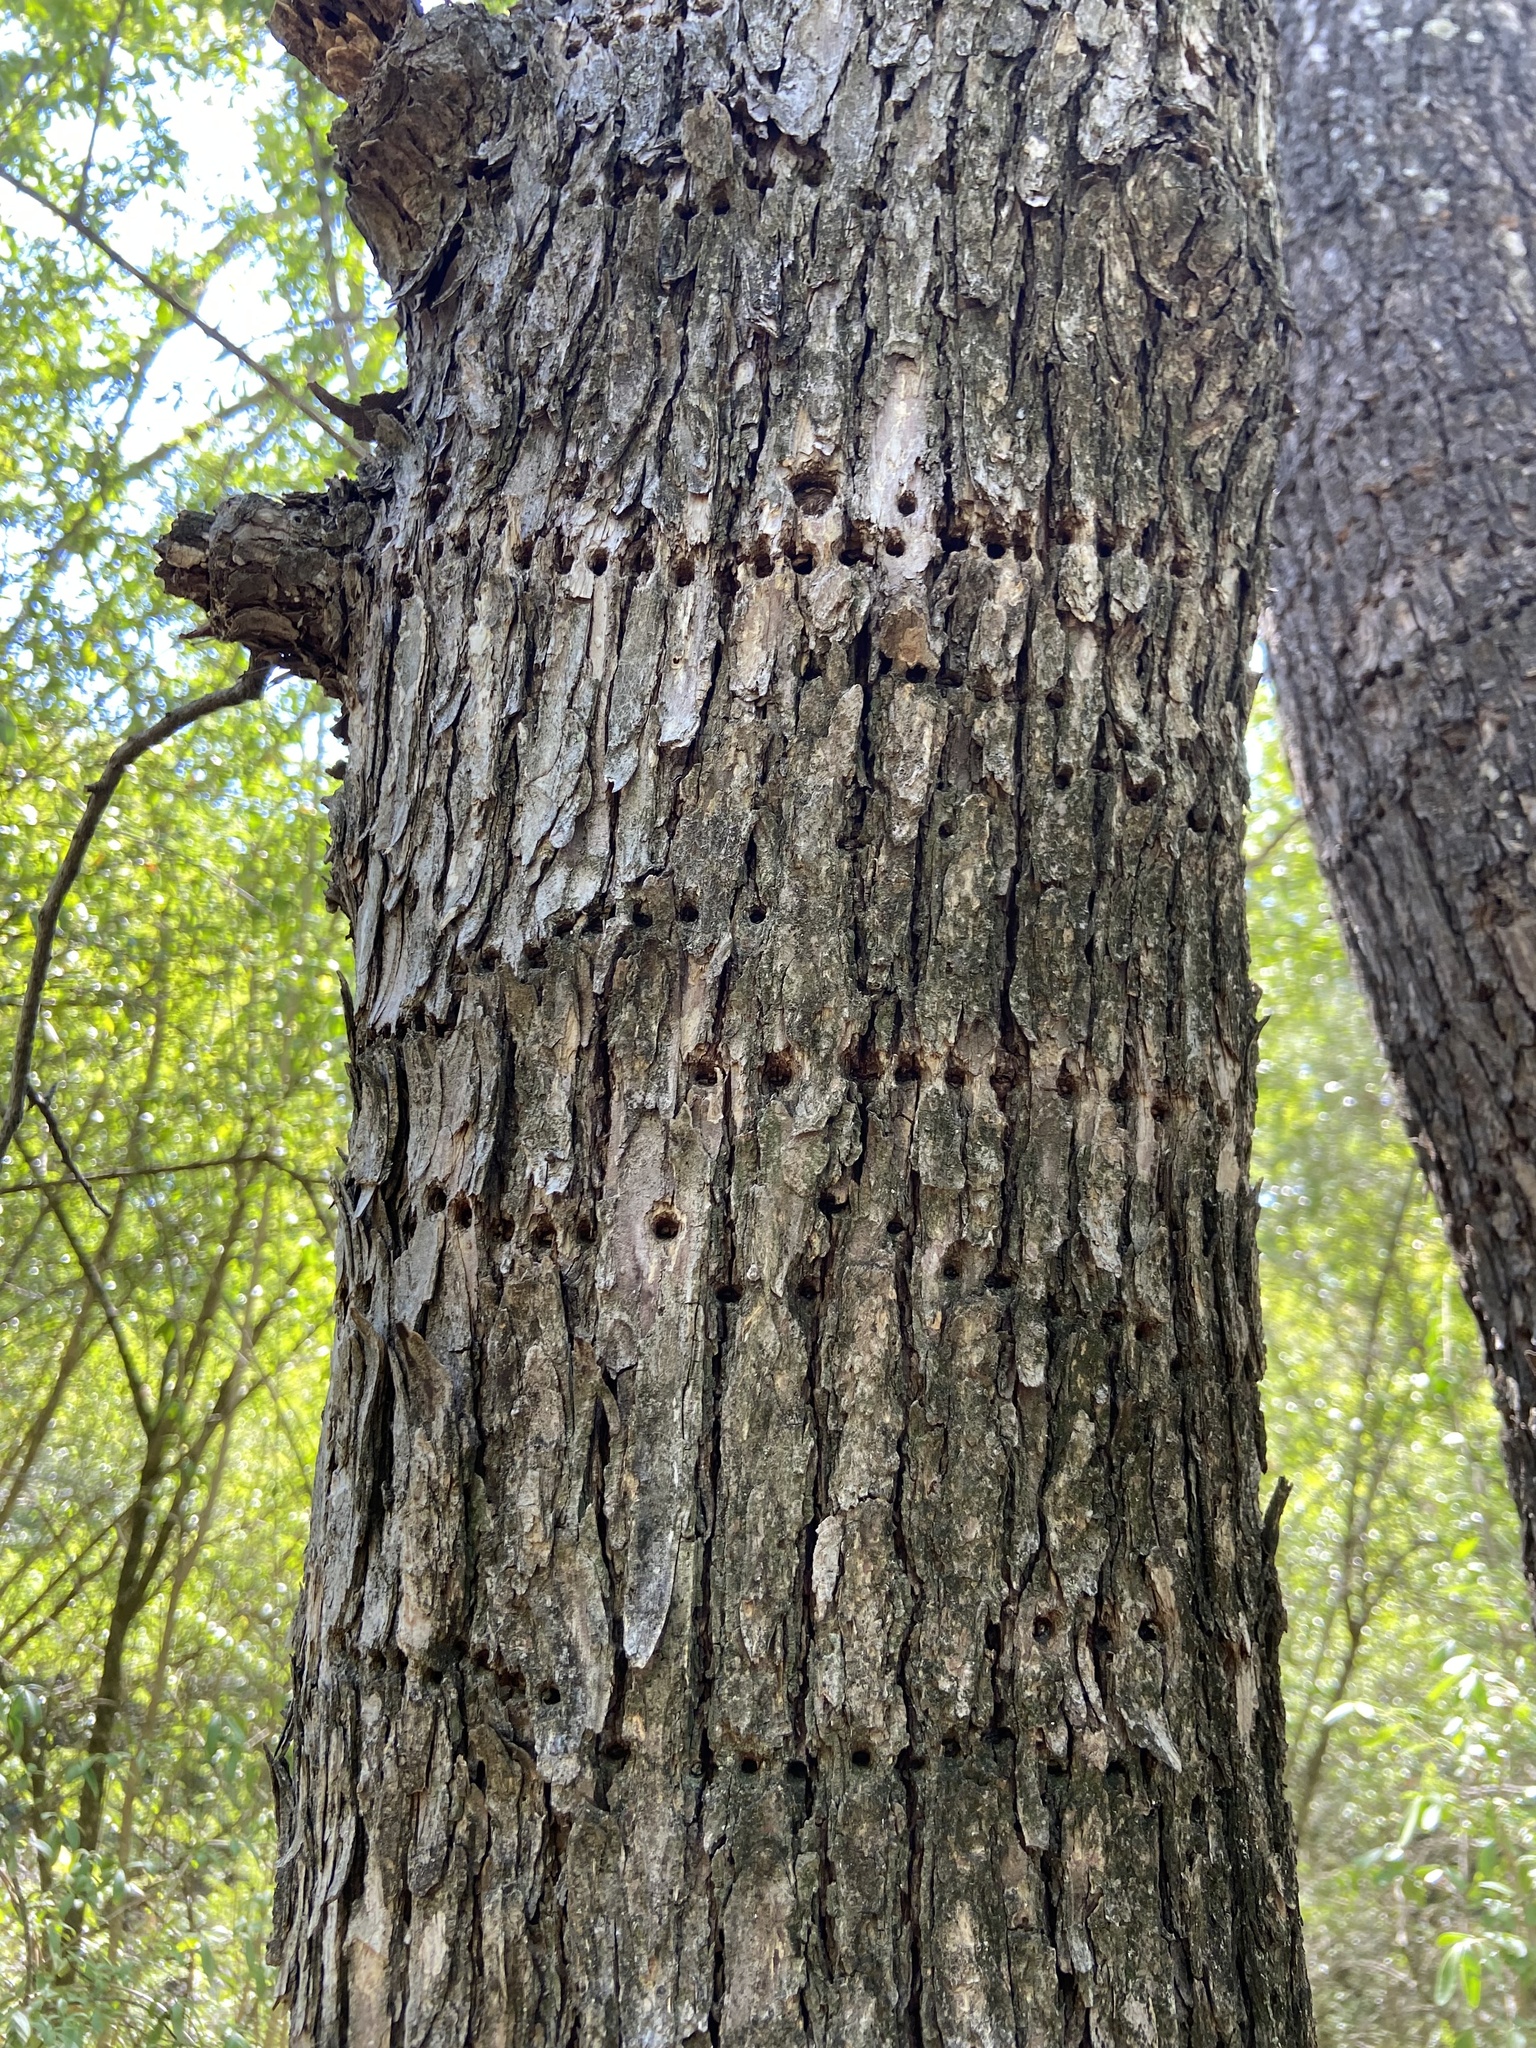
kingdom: Animalia
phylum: Chordata
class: Aves
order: Piciformes
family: Picidae
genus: Sphyrapicus
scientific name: Sphyrapicus varius
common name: Yellow-bellied sapsucker
